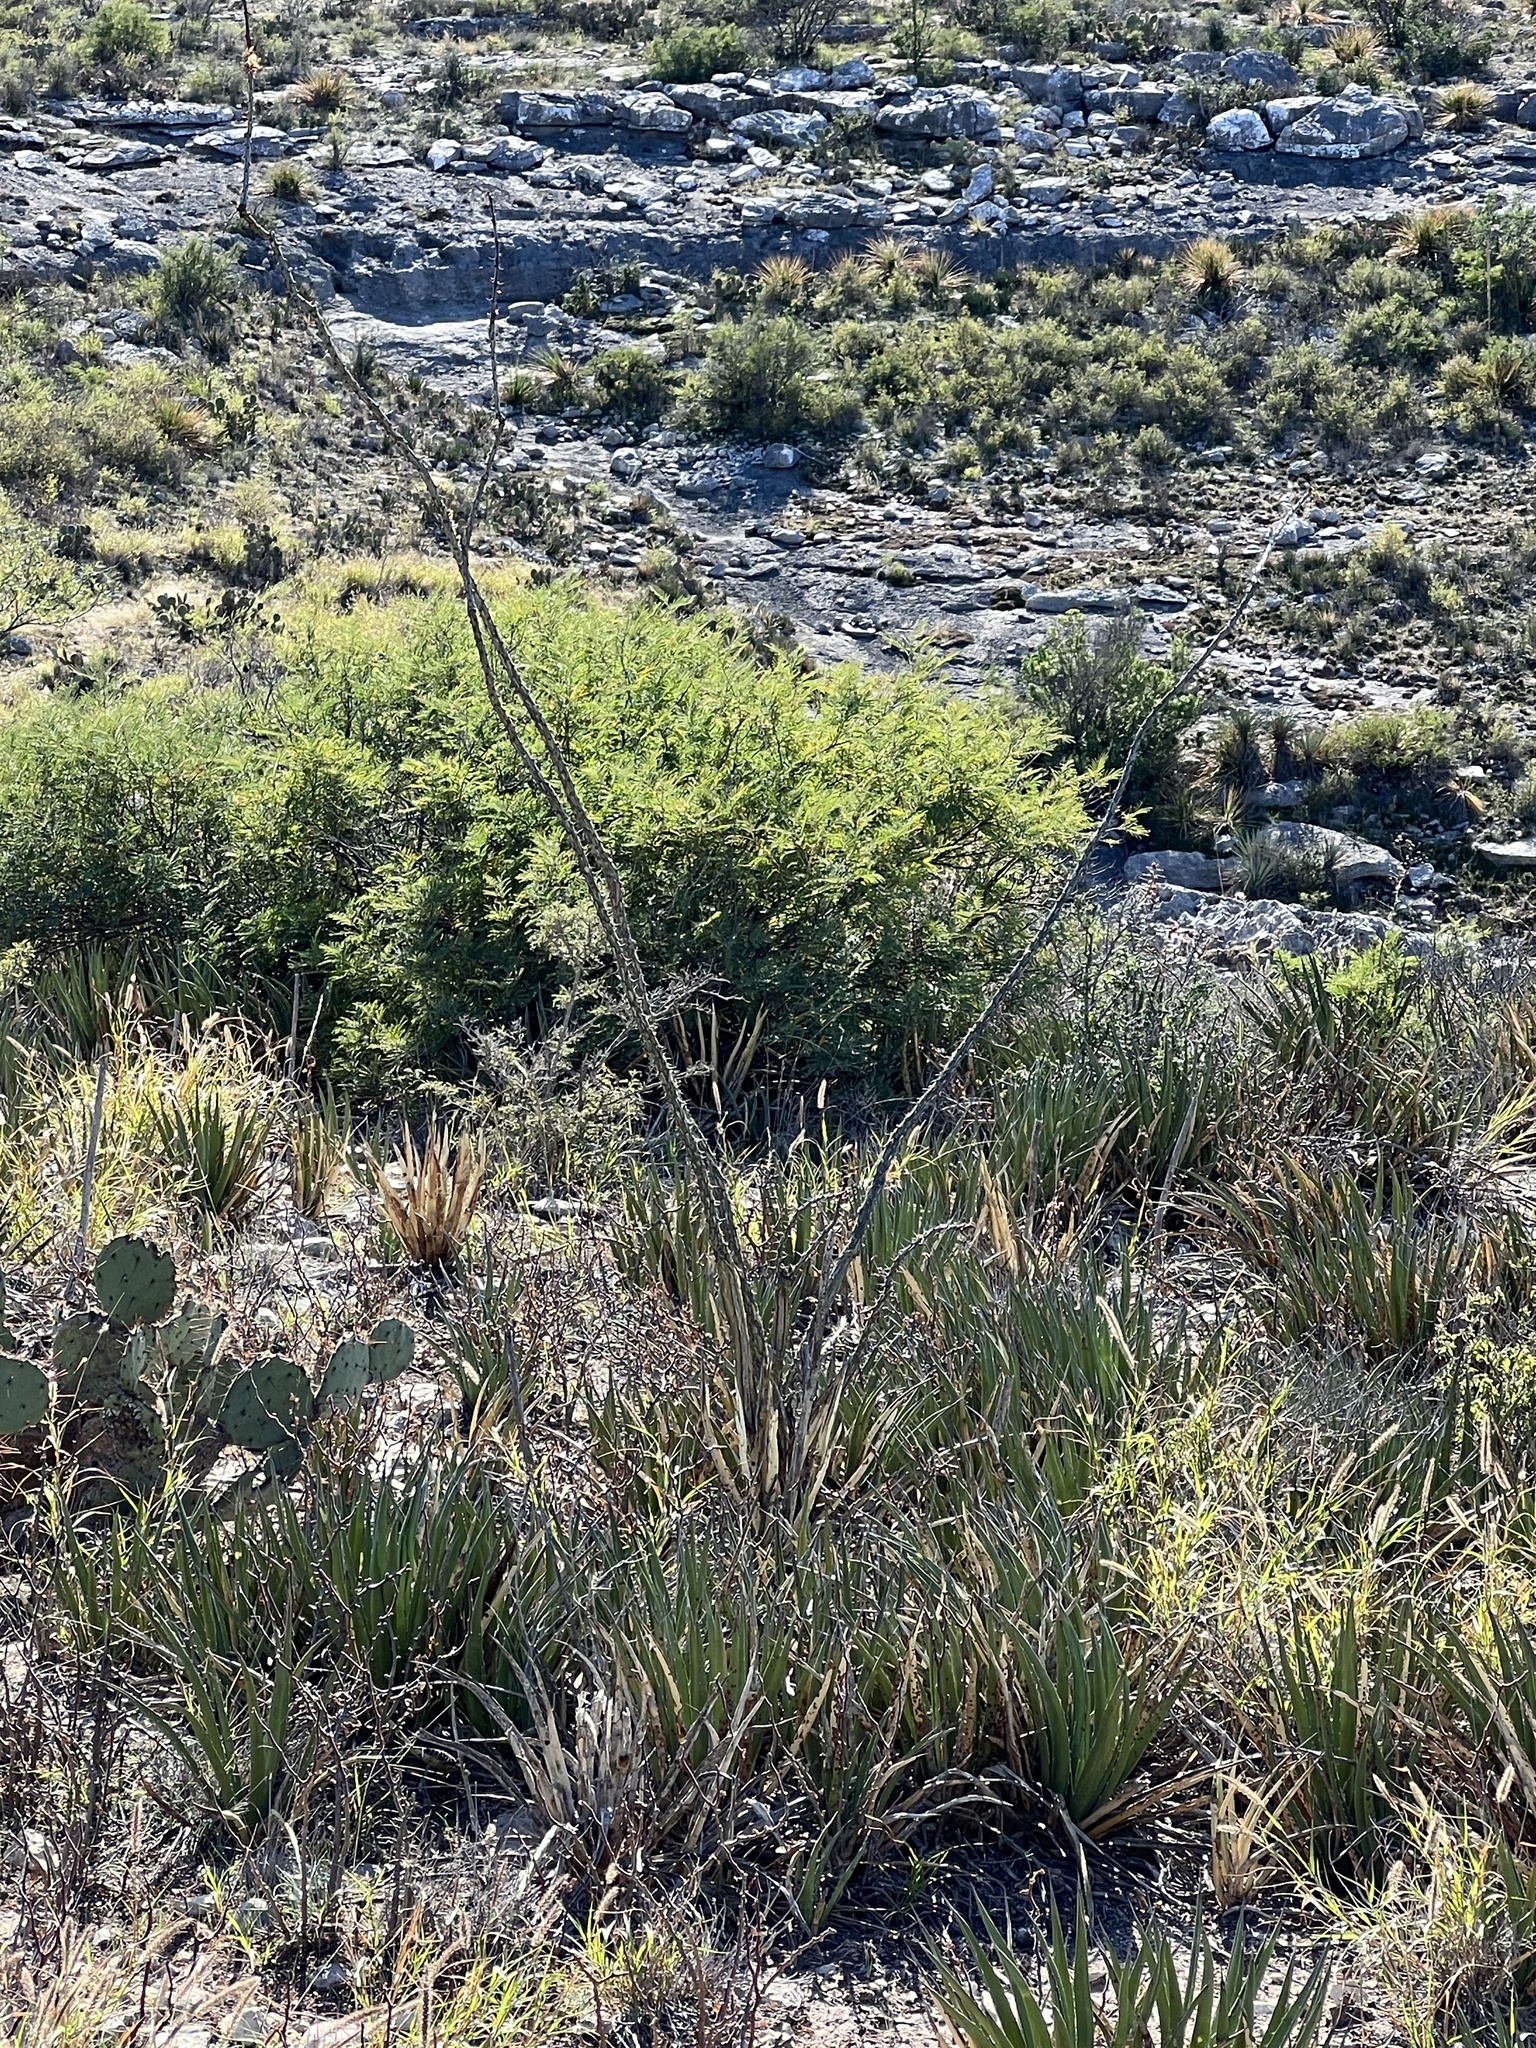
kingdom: Plantae
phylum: Tracheophyta
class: Magnoliopsida
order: Ericales
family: Fouquieriaceae
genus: Fouquieria
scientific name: Fouquieria splendens
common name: Vine-cactus
